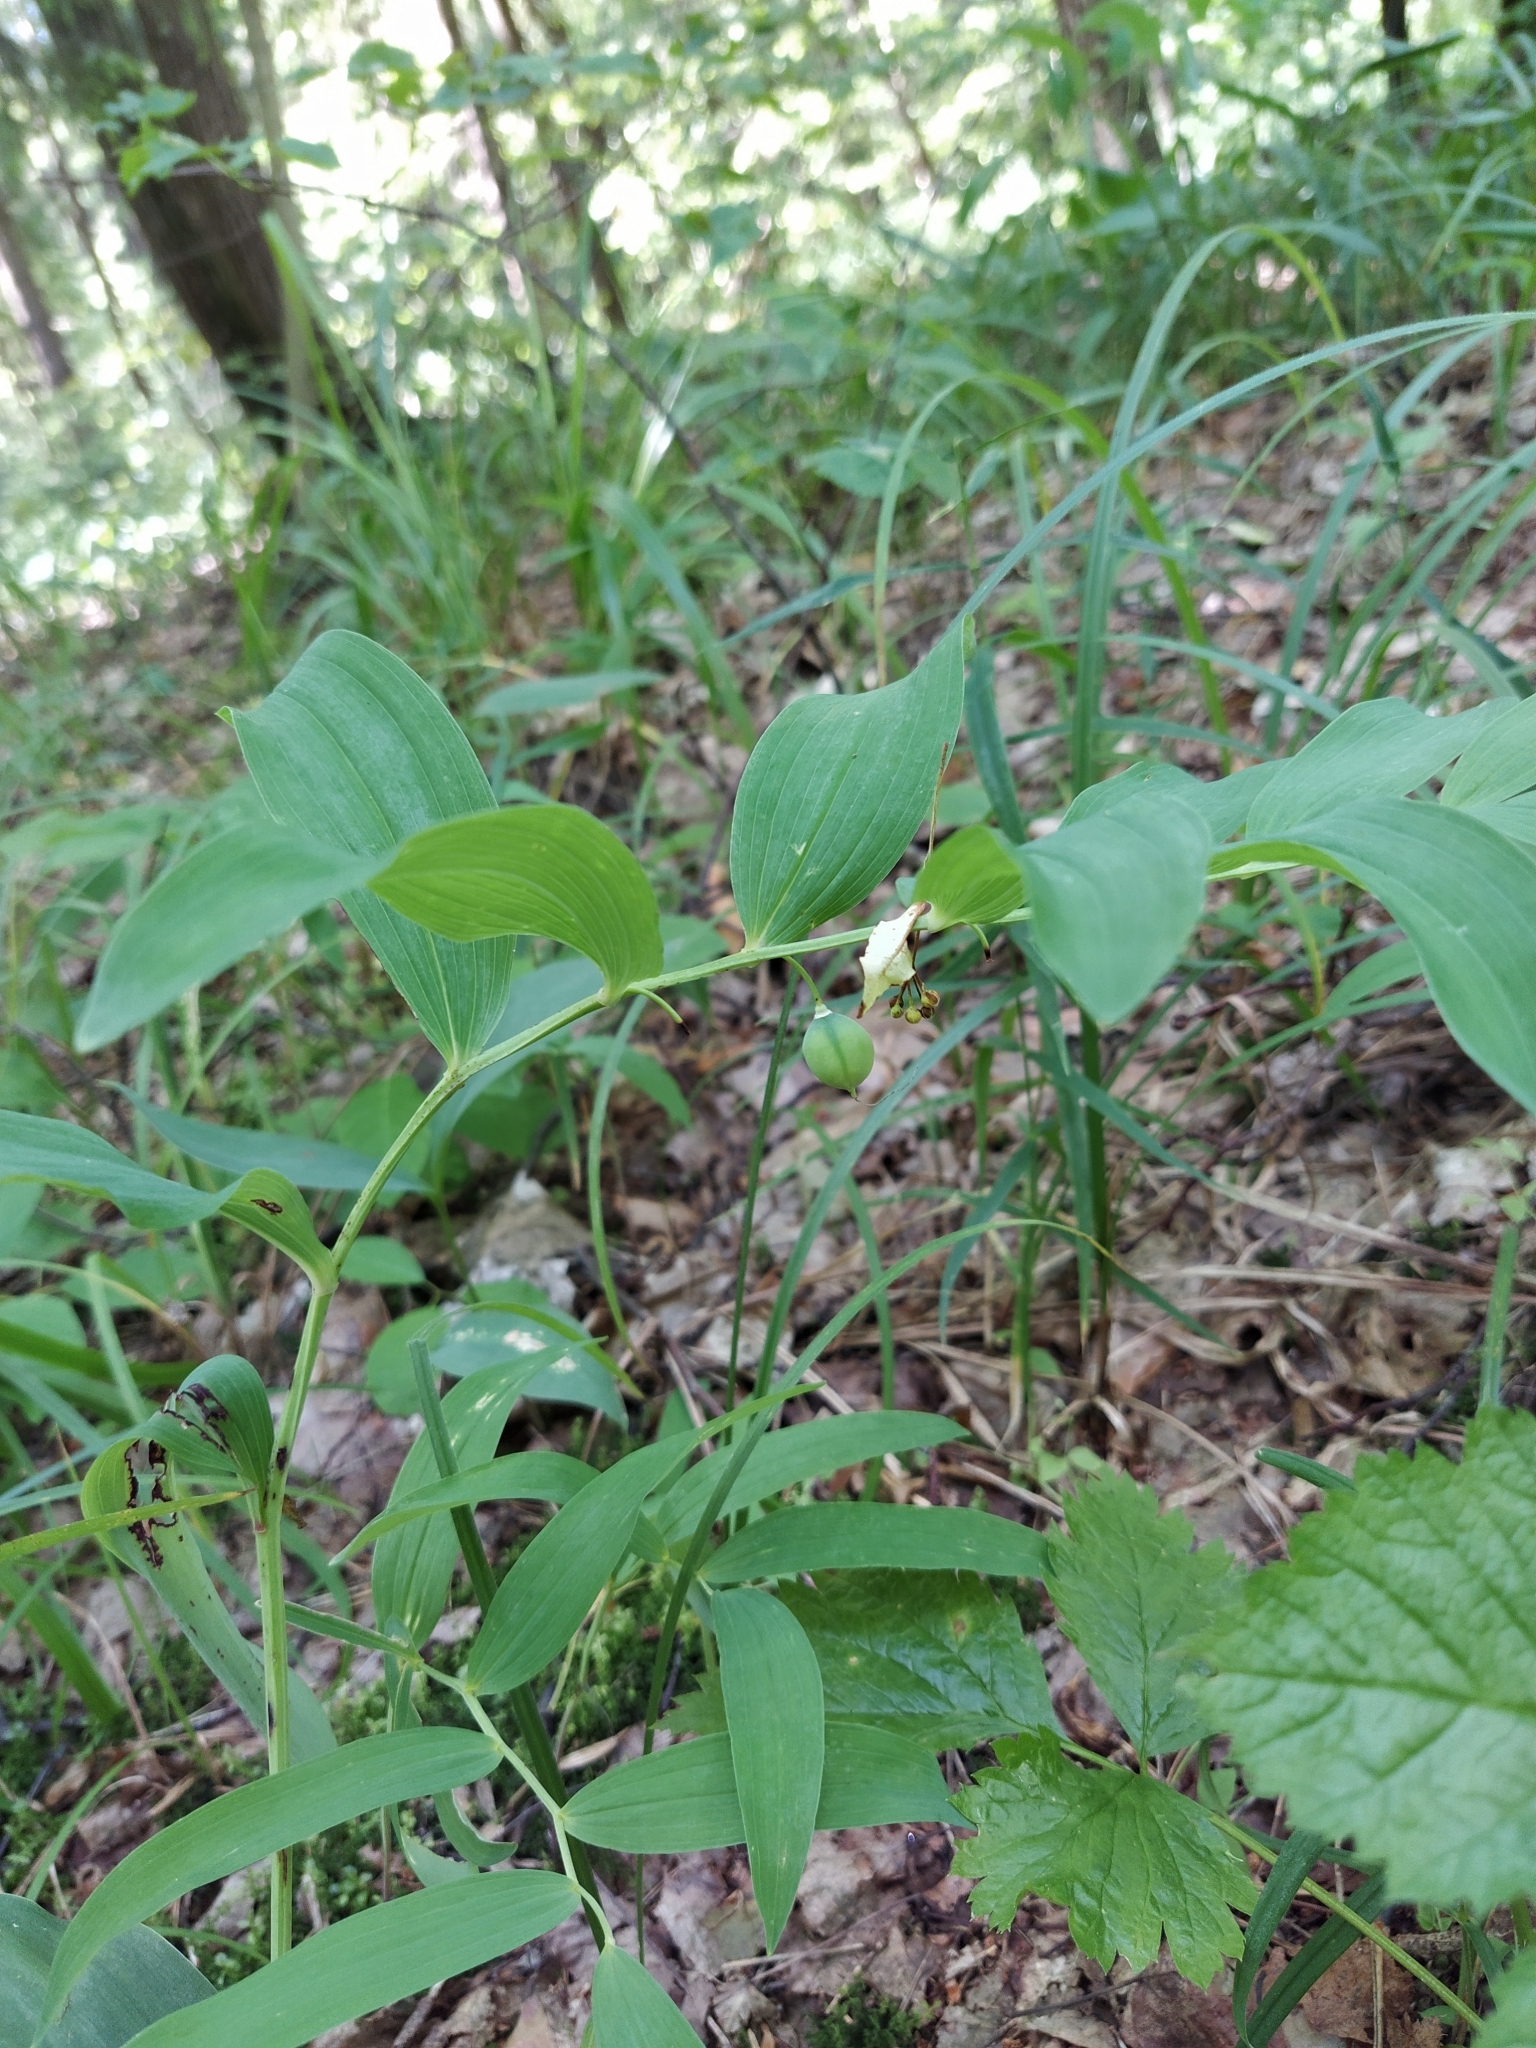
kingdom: Plantae
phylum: Tracheophyta
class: Liliopsida
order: Asparagales
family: Asparagaceae
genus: Polygonatum
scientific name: Polygonatum odoratum
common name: Angular solomon's-seal
